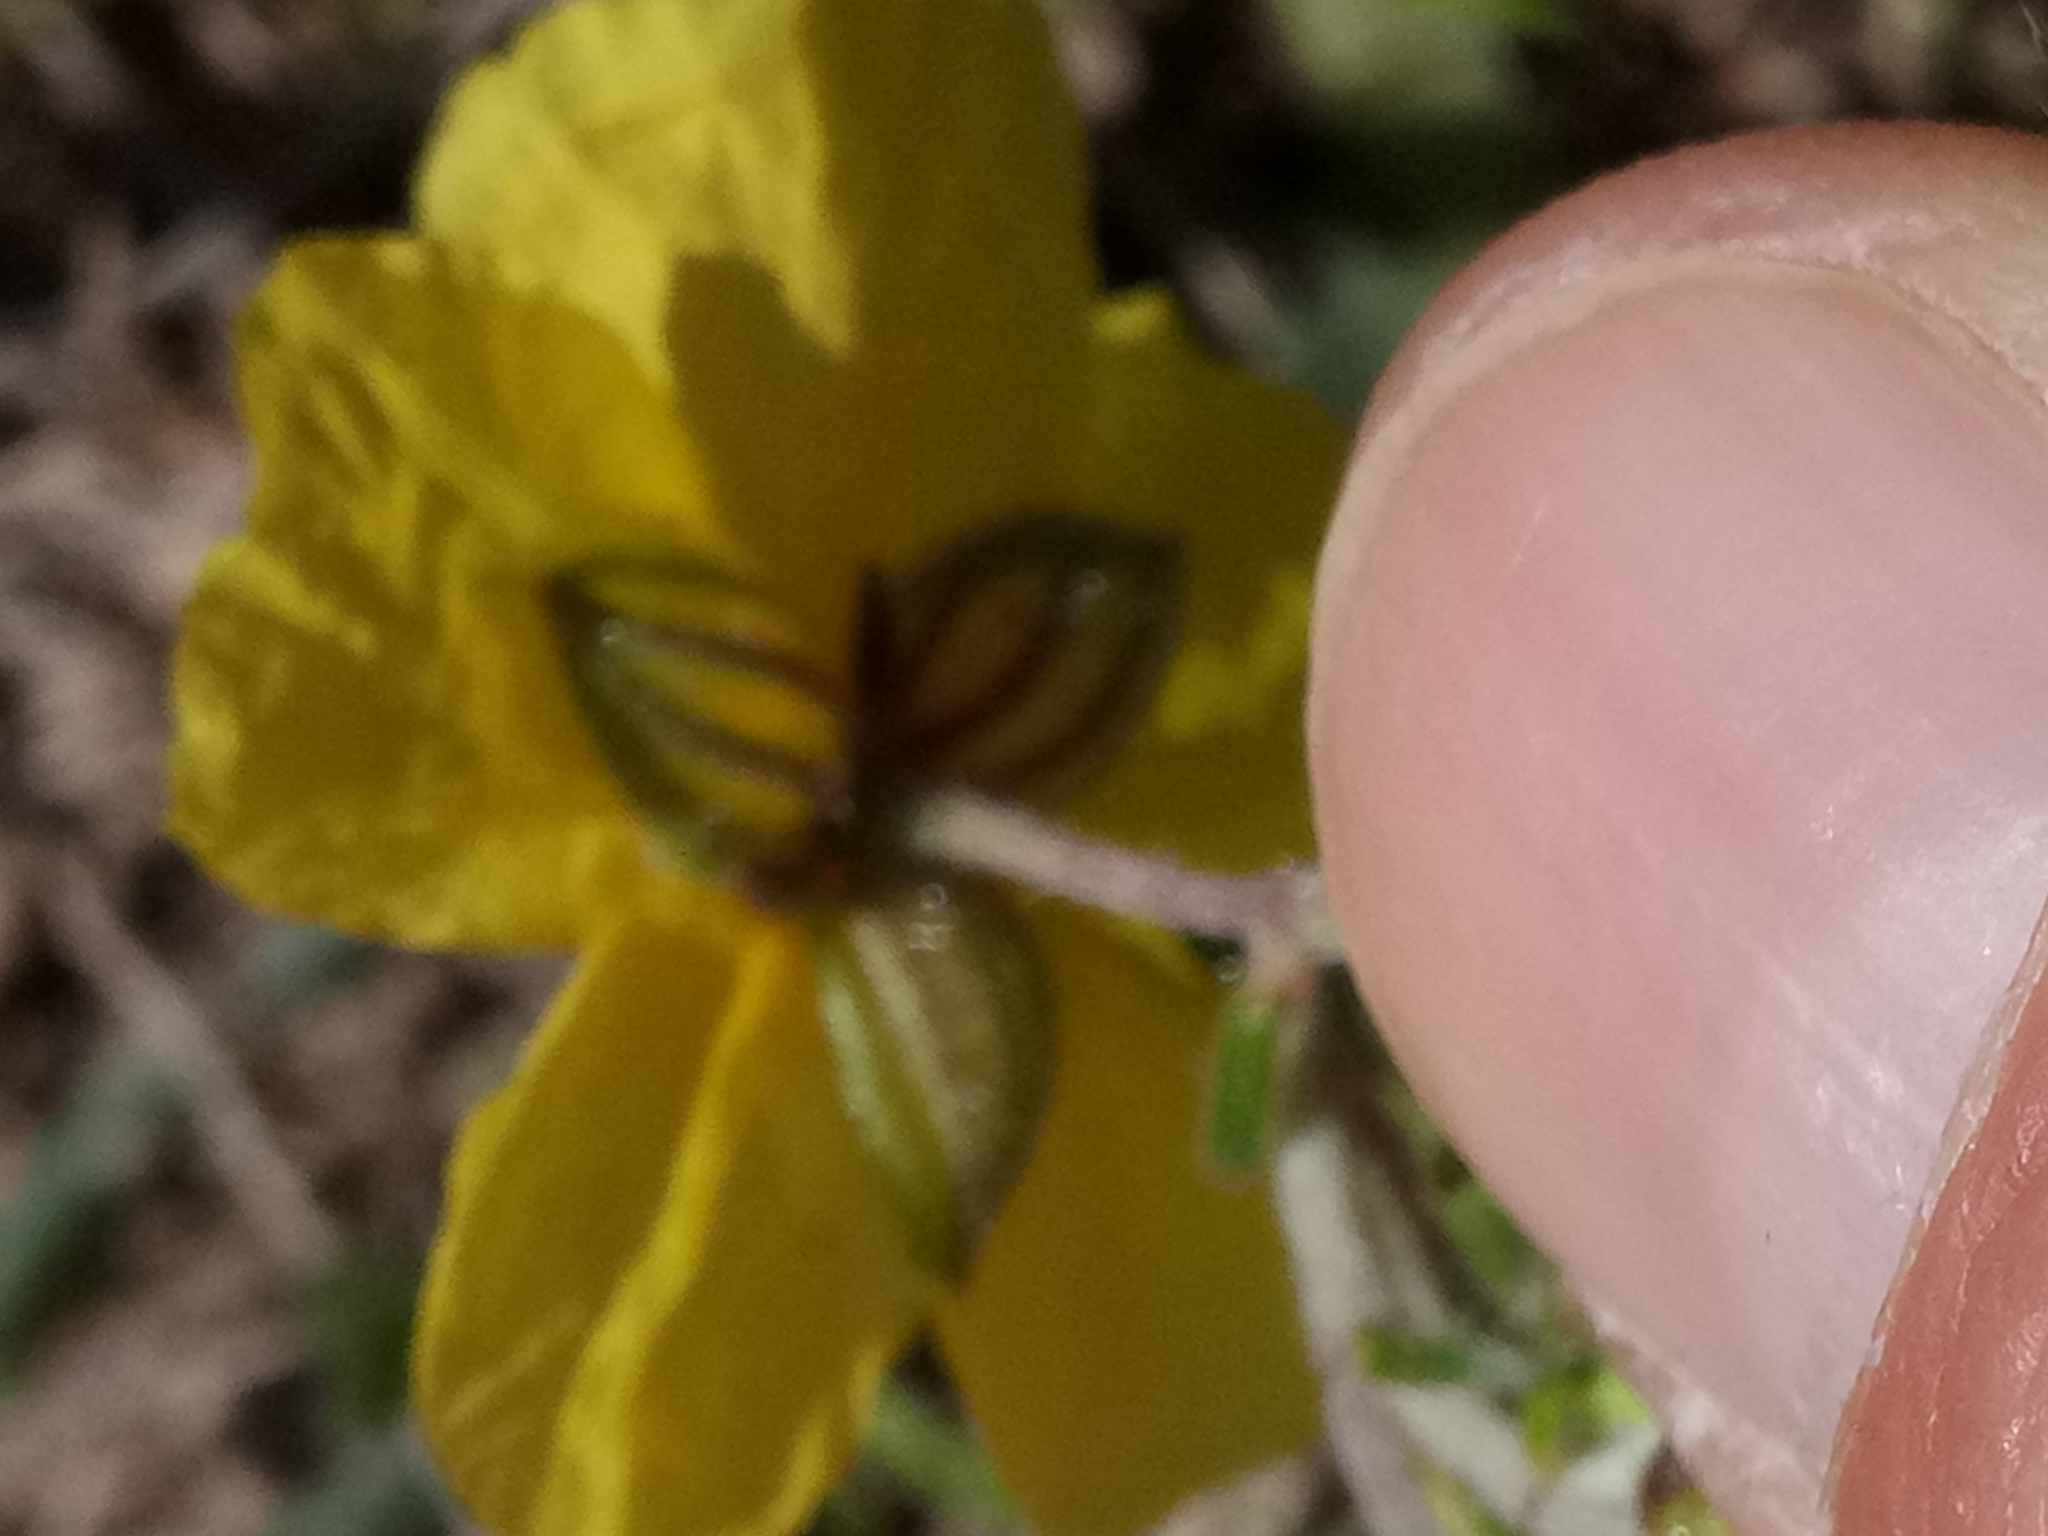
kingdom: Plantae
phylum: Tracheophyta
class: Magnoliopsida
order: Malvales
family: Cistaceae
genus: Helianthemum
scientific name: Helianthemum helianthemoides
